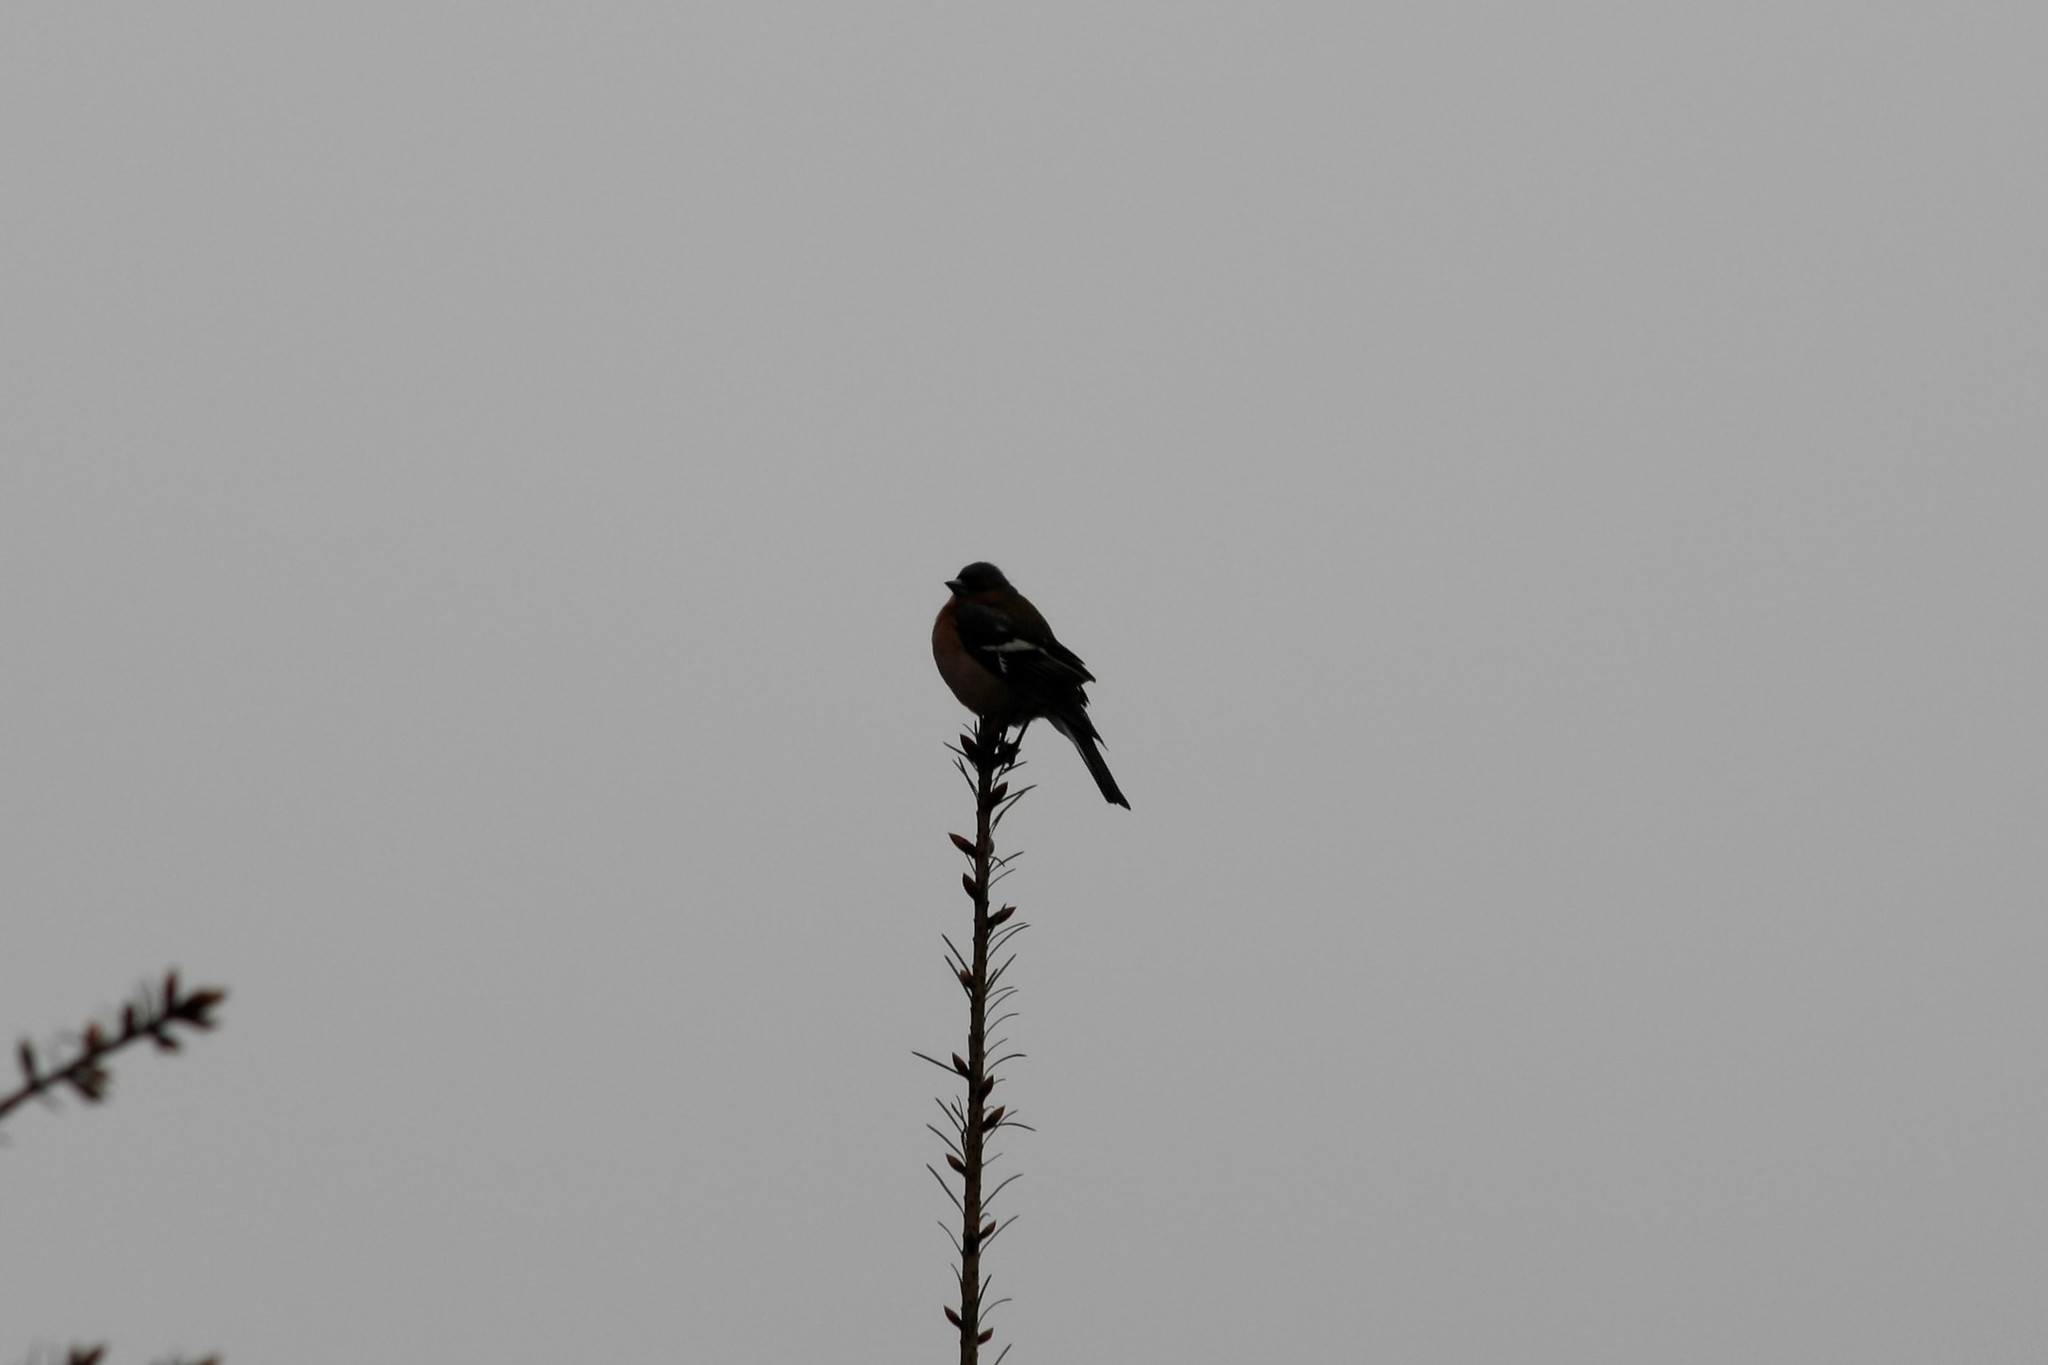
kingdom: Animalia
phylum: Chordata
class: Aves
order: Passeriformes
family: Fringillidae
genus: Fringilla
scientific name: Fringilla coelebs
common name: Common chaffinch
